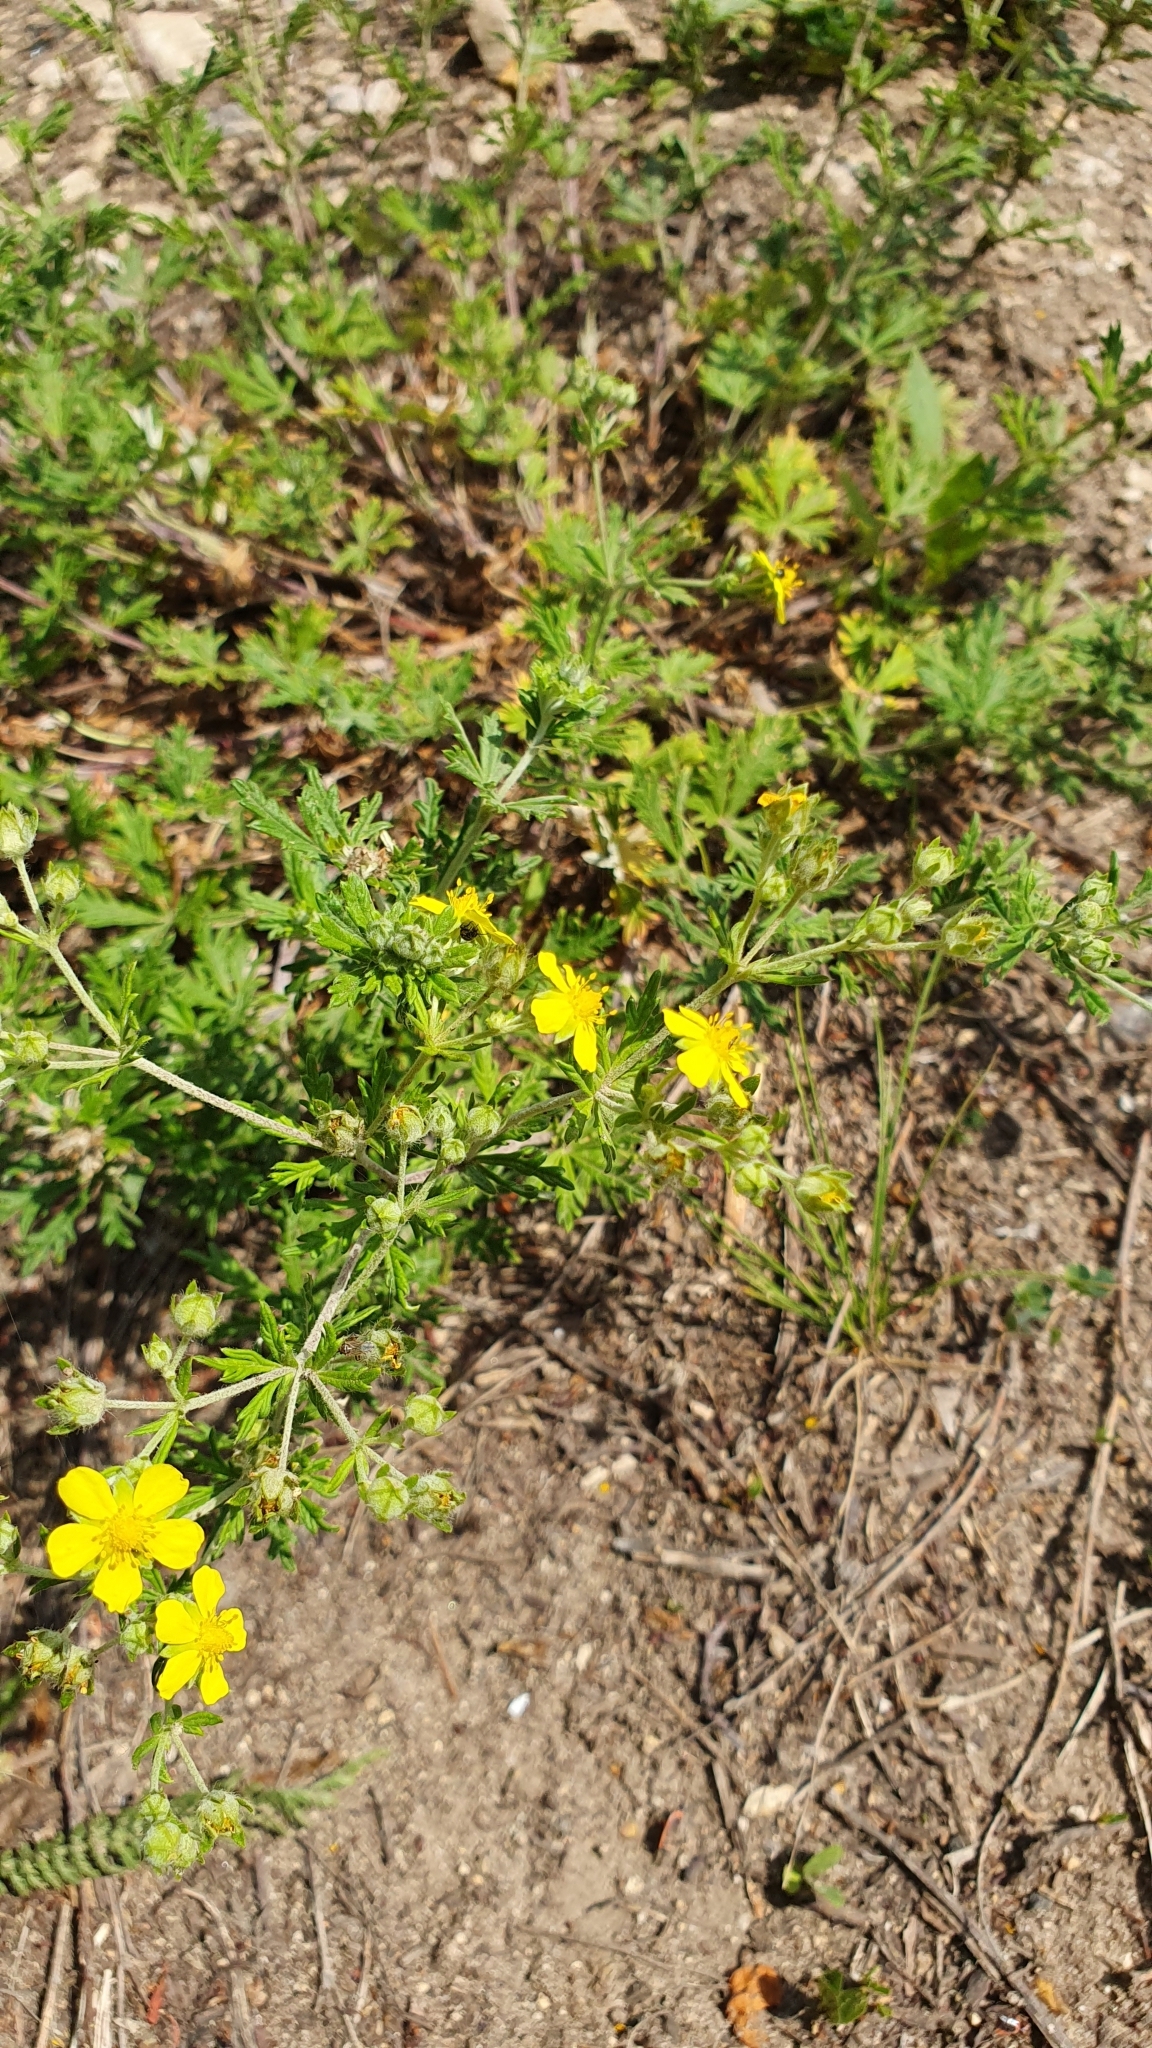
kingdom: Plantae
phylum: Tracheophyta
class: Magnoliopsida
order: Rosales
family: Rosaceae
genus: Potentilla
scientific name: Potentilla argentea
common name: Hoary cinquefoil
